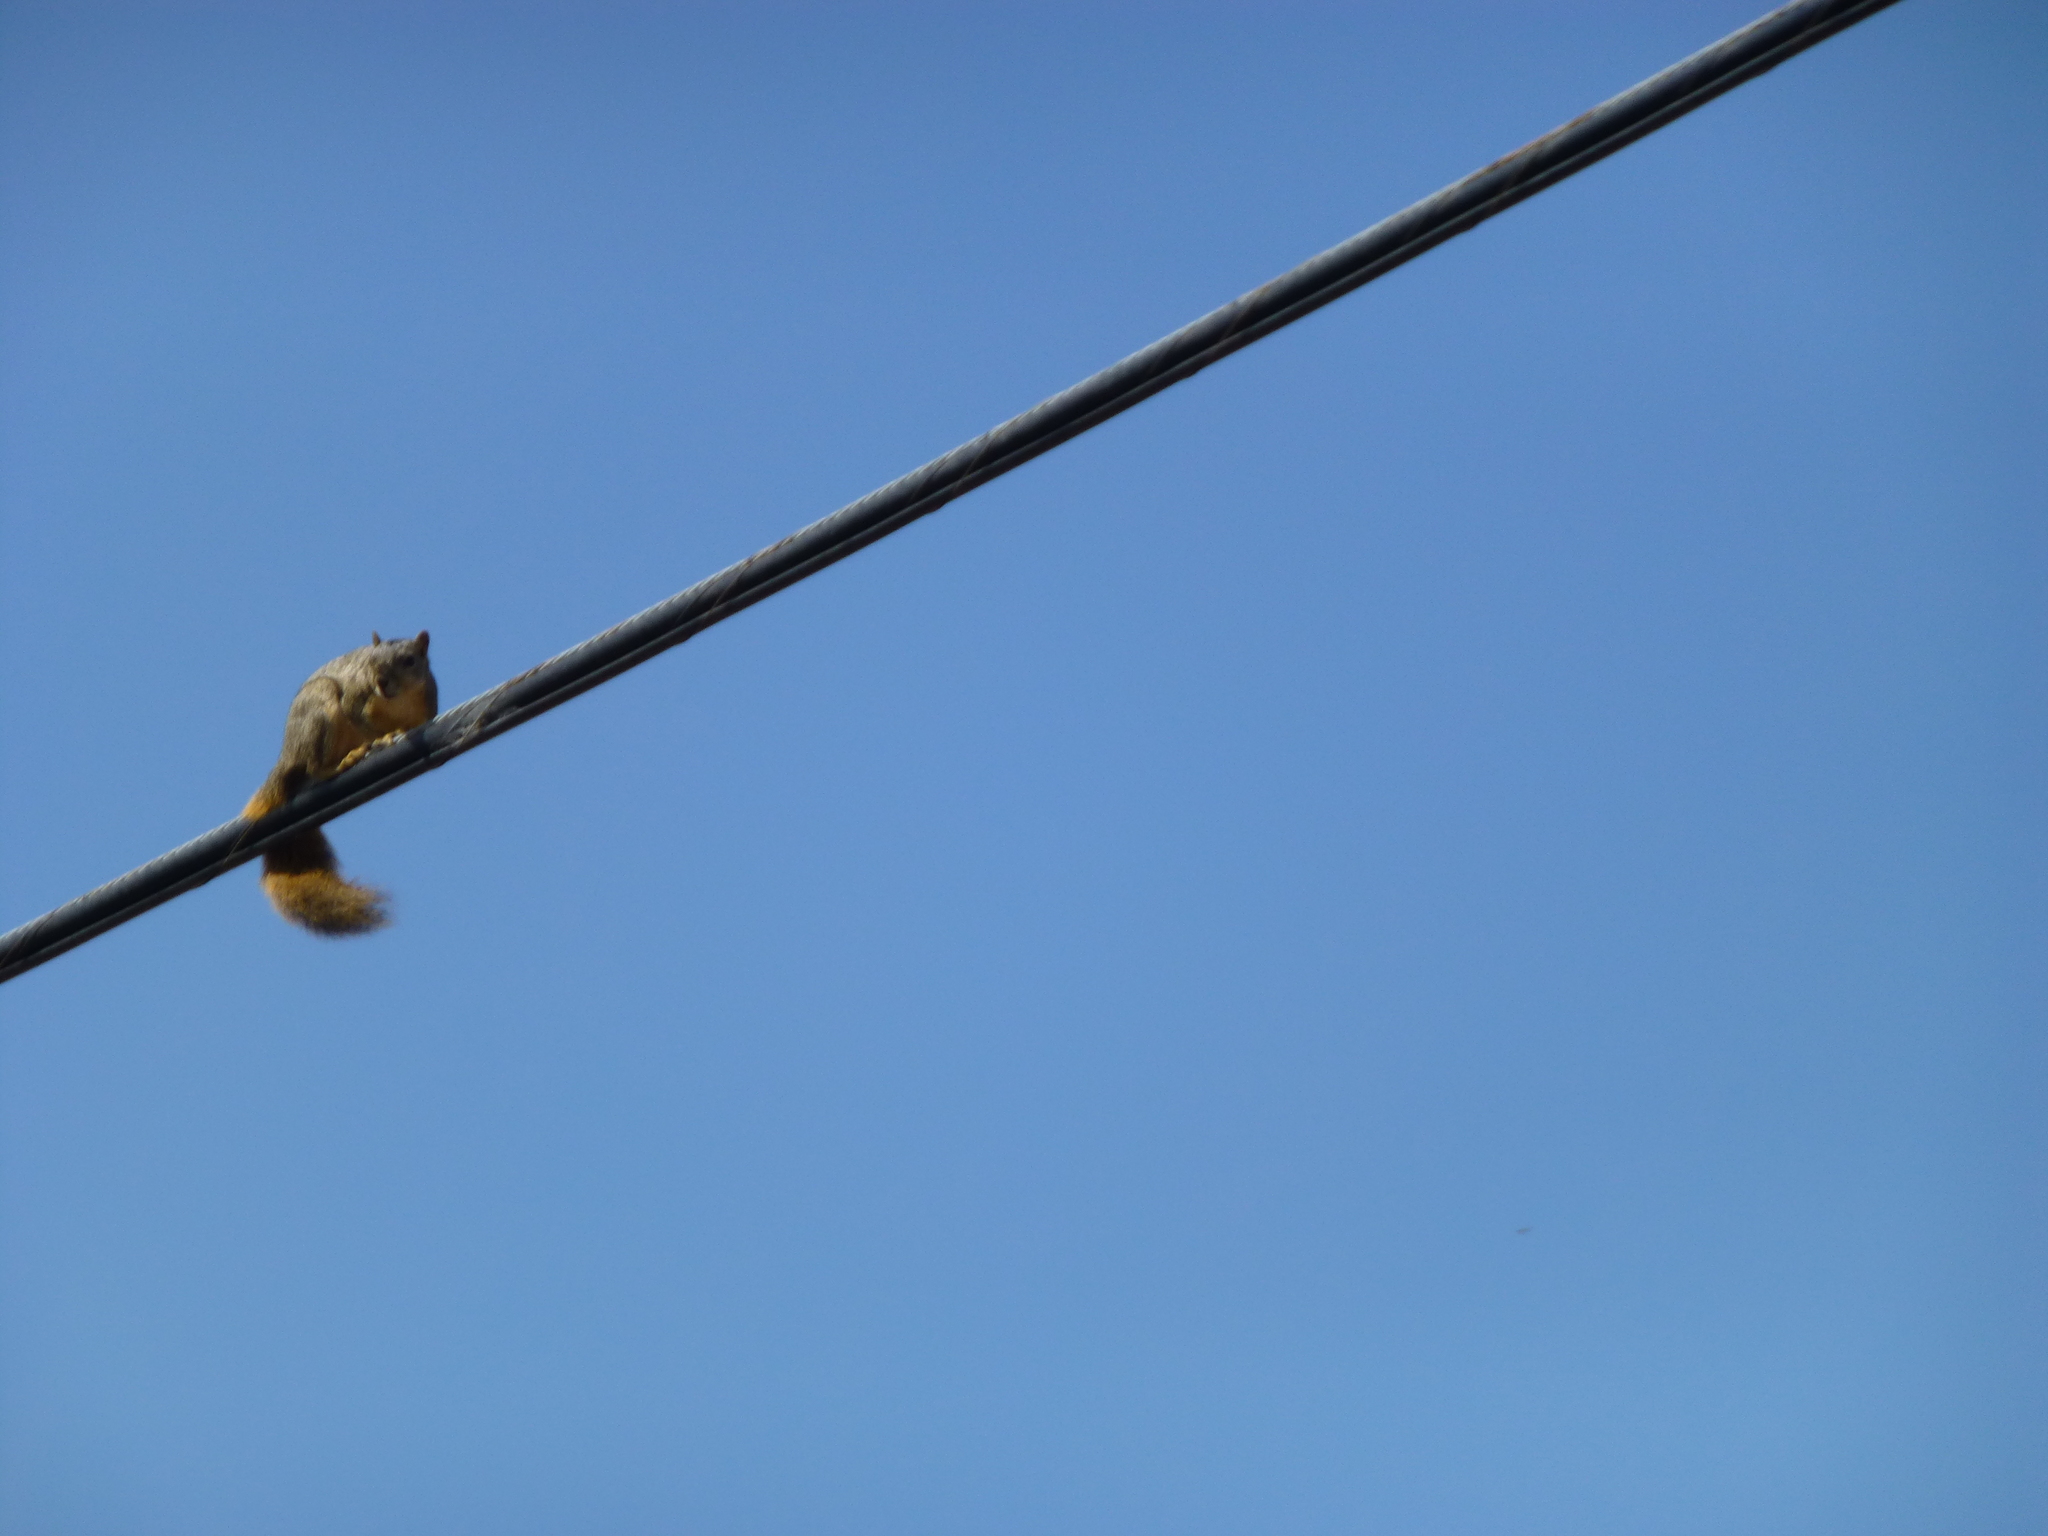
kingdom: Animalia
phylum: Chordata
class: Mammalia
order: Rodentia
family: Sciuridae
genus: Sciurus
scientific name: Sciurus niger
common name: Fox squirrel
